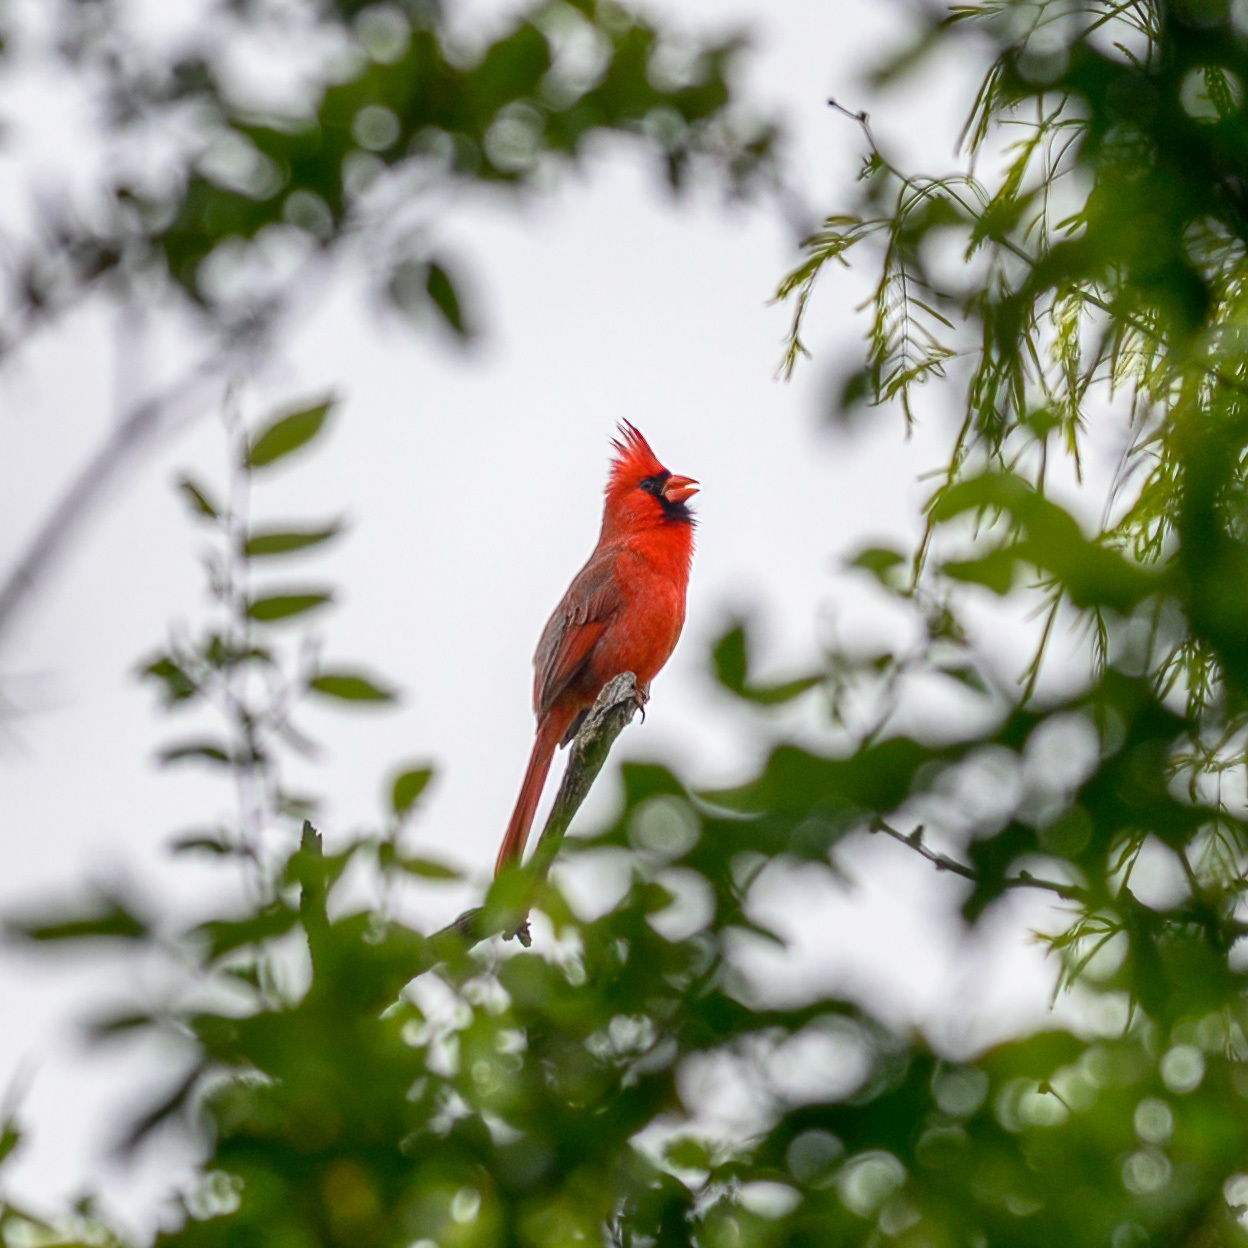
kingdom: Animalia
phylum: Chordata
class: Aves
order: Passeriformes
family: Cardinalidae
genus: Cardinalis
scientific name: Cardinalis cardinalis
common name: Northern cardinal
